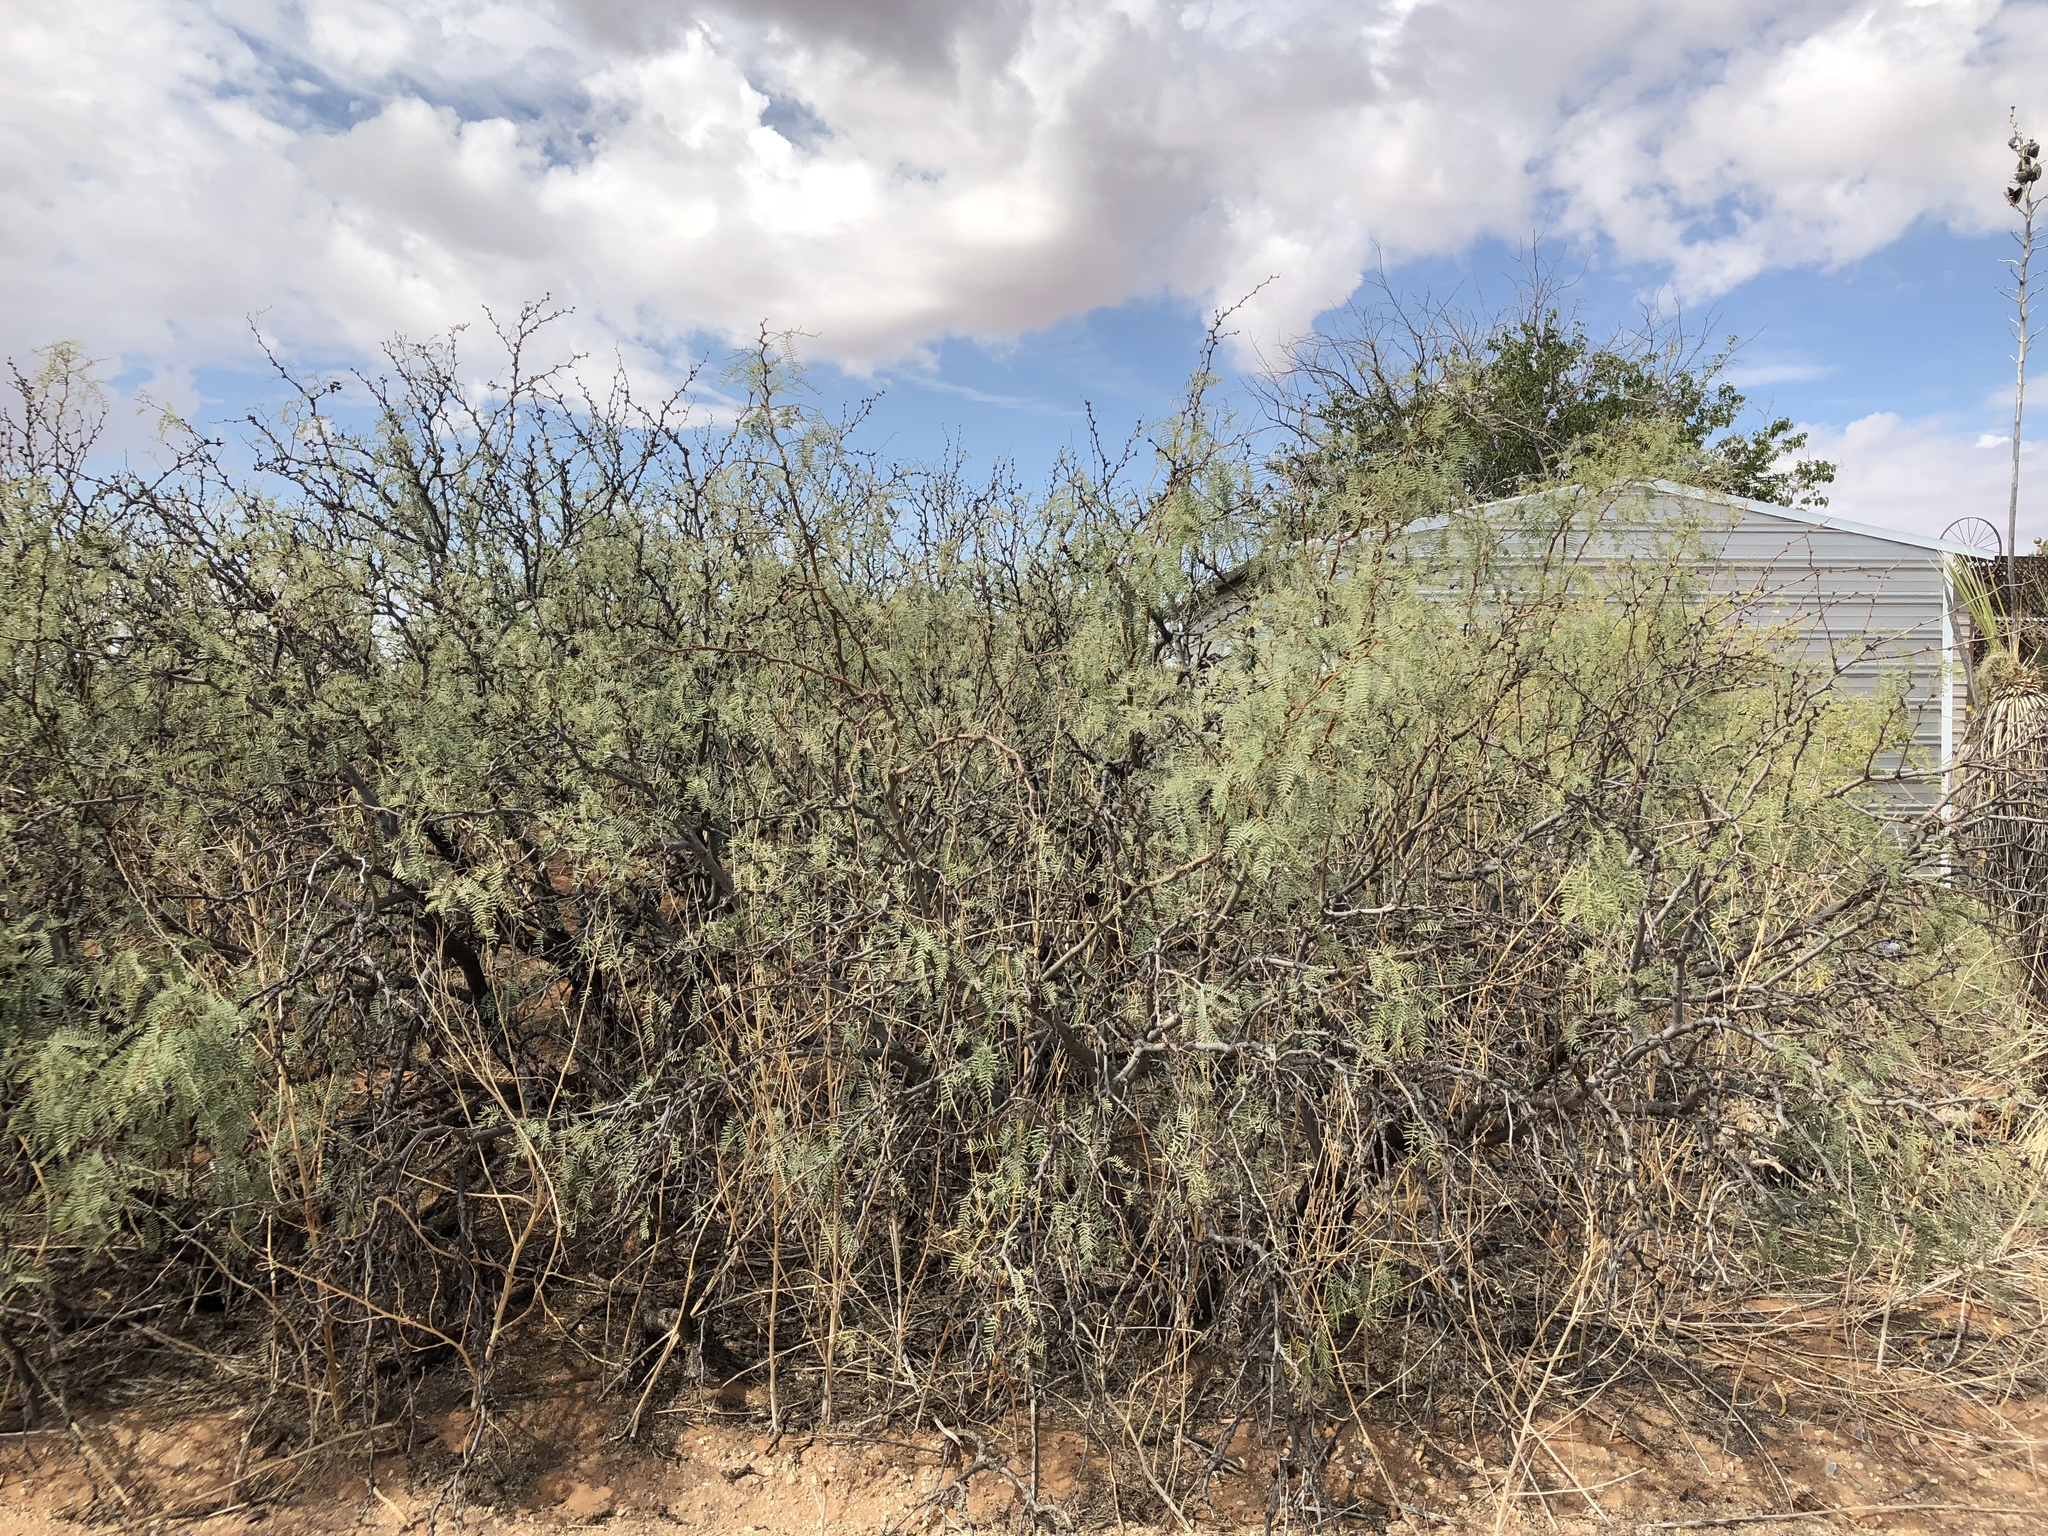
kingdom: Plantae
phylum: Tracheophyta
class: Magnoliopsida
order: Fabales
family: Fabaceae
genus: Prosopis
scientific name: Prosopis glandulosa
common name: Honey mesquite
